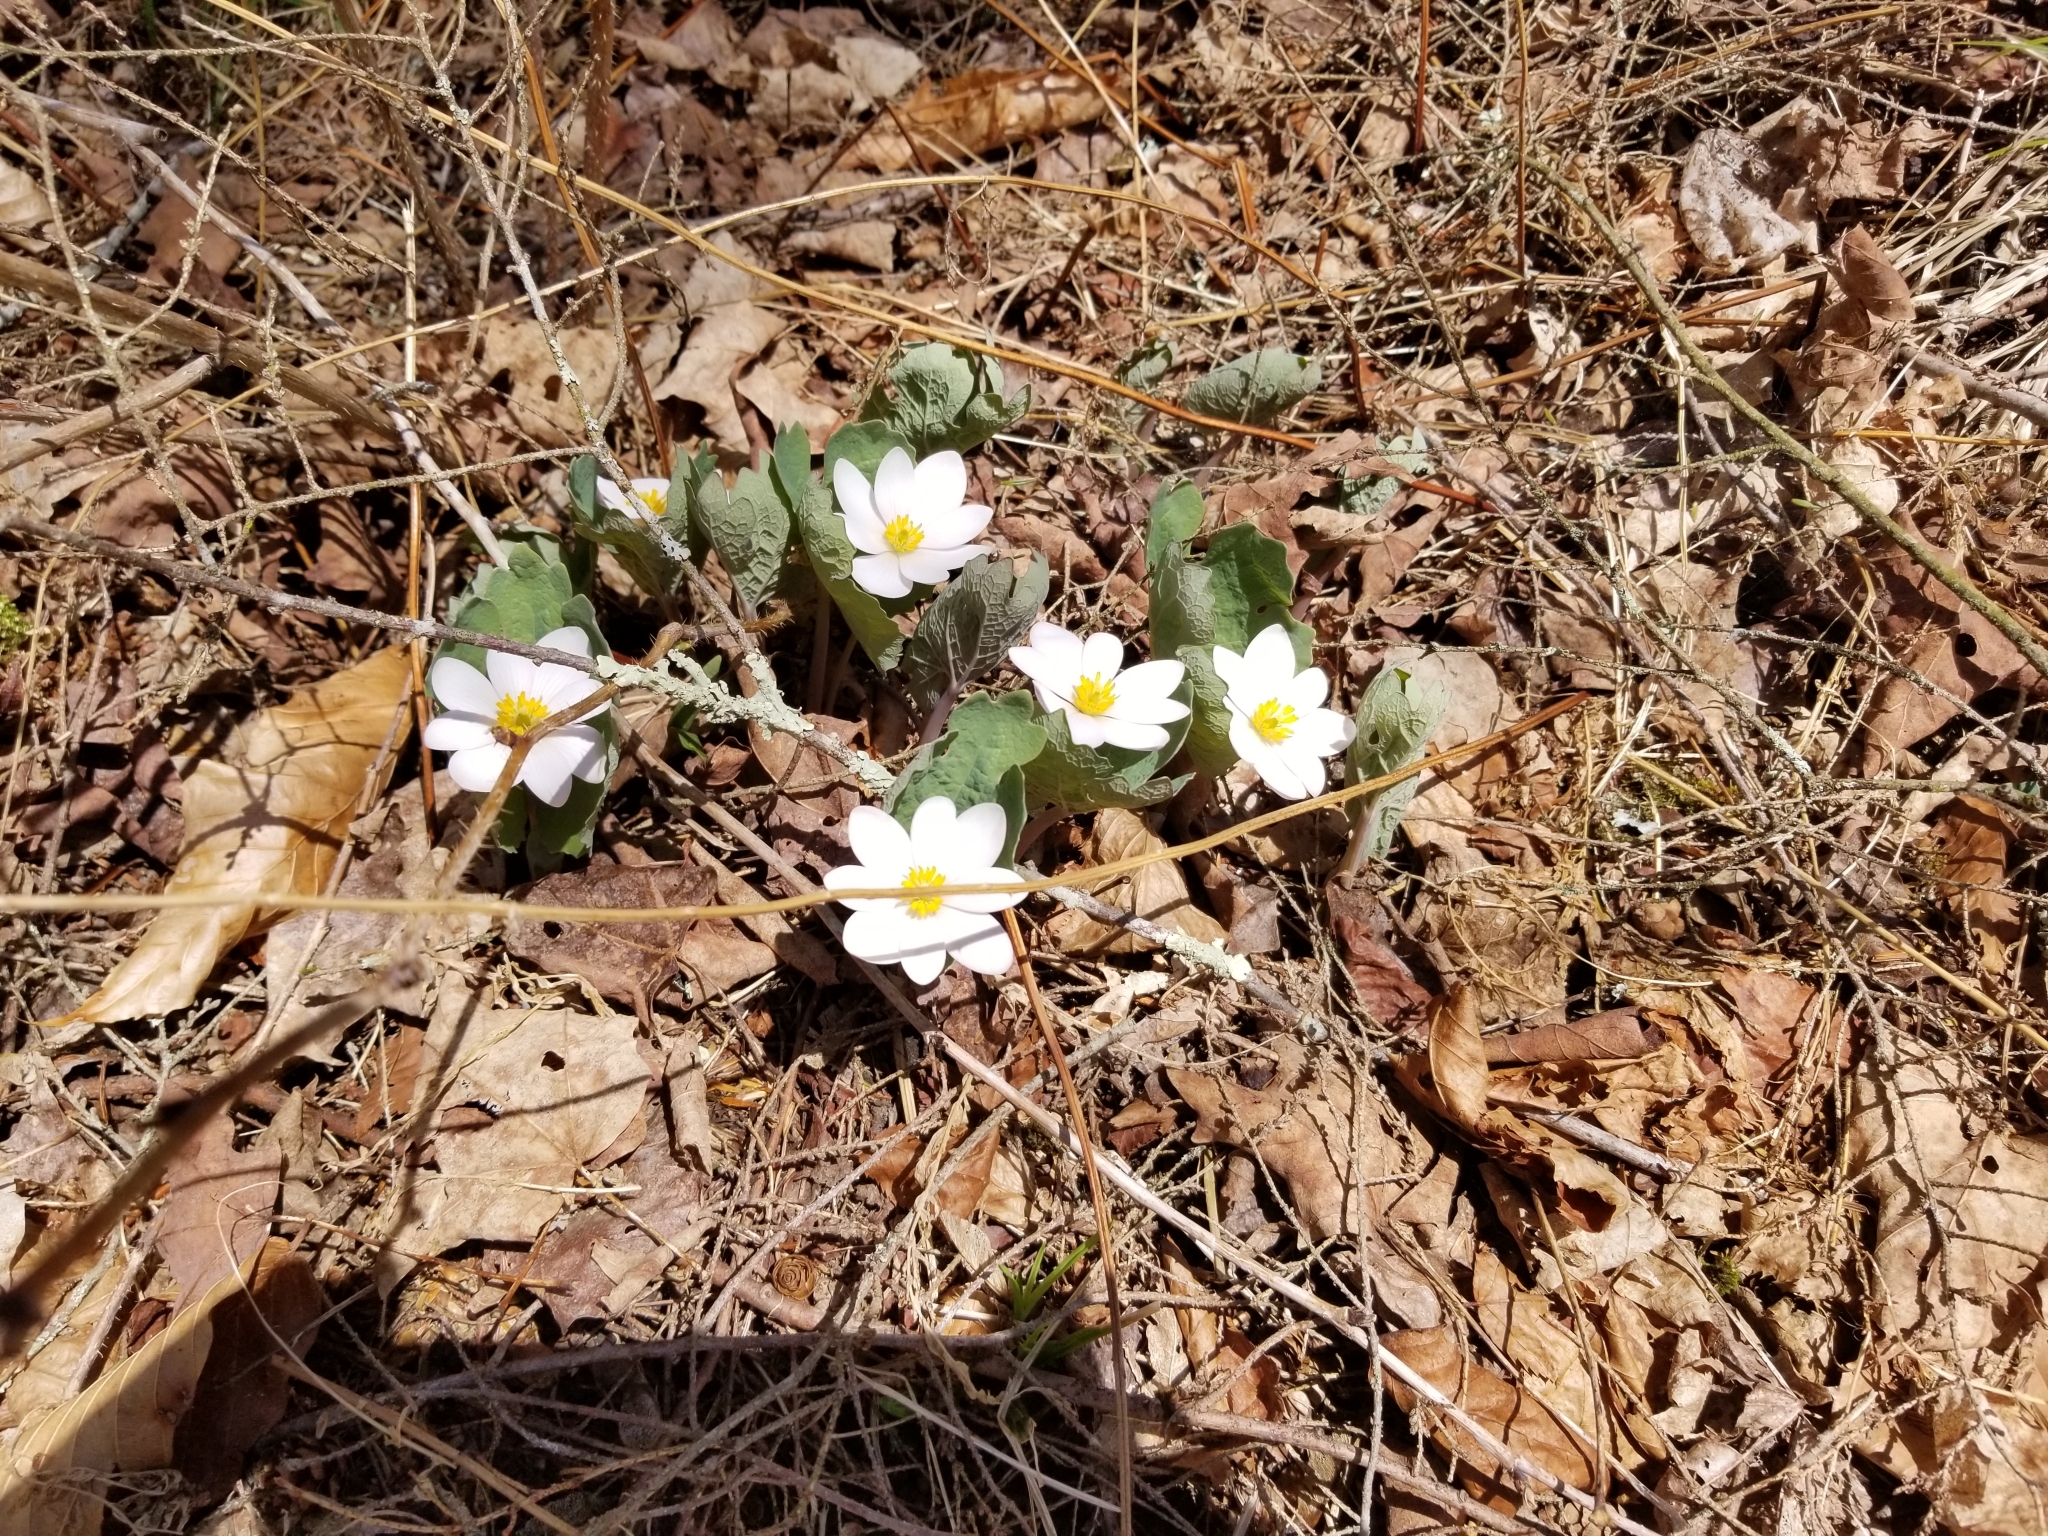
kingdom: Plantae
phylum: Tracheophyta
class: Magnoliopsida
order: Ranunculales
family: Papaveraceae
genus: Sanguinaria
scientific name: Sanguinaria canadensis
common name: Bloodroot
